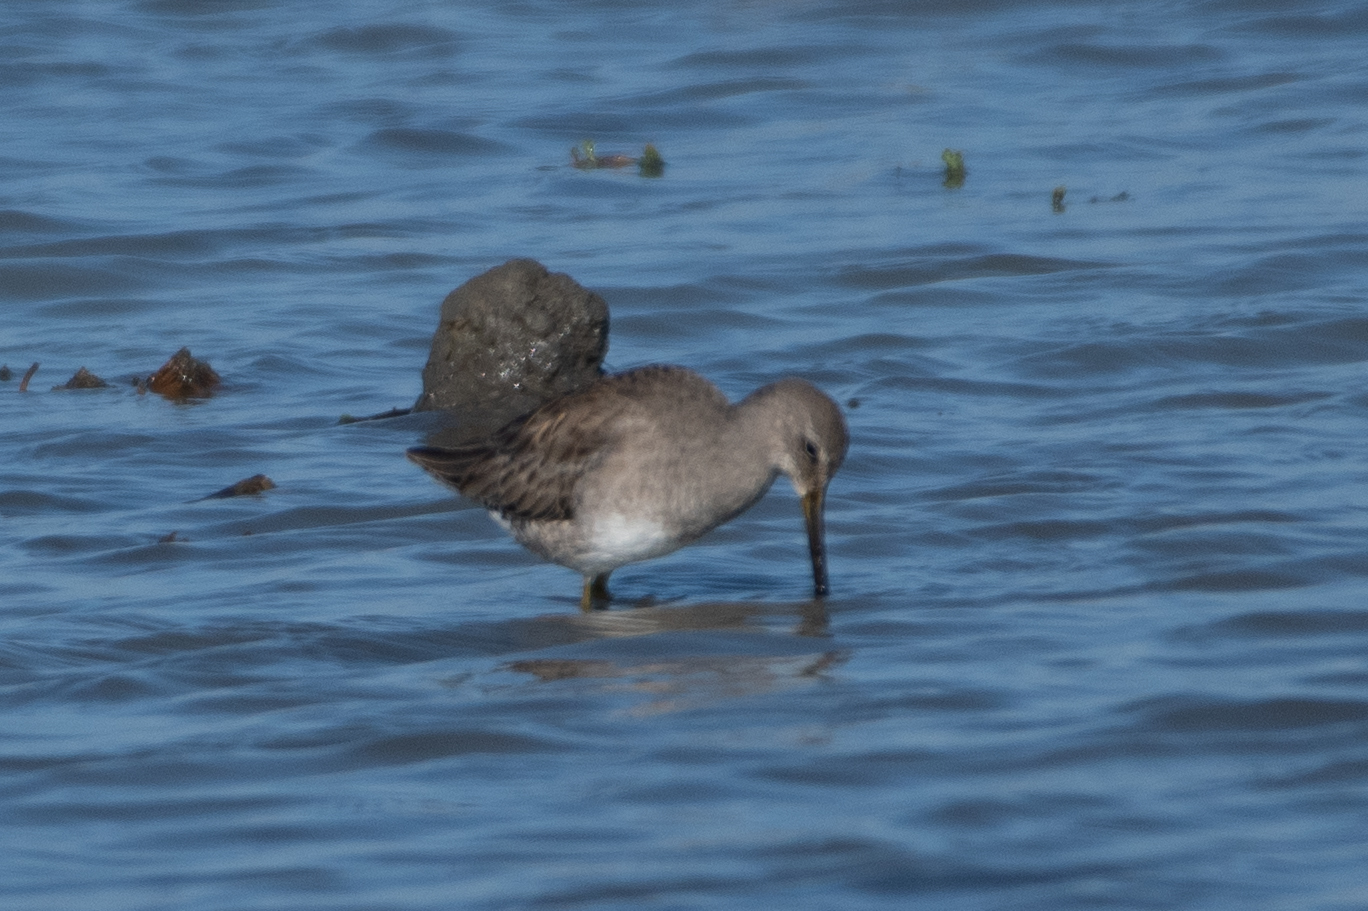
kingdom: Animalia
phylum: Chordata
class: Aves
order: Charadriiformes
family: Scolopacidae
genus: Limnodromus
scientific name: Limnodromus scolopaceus
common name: Long-billed dowitcher
